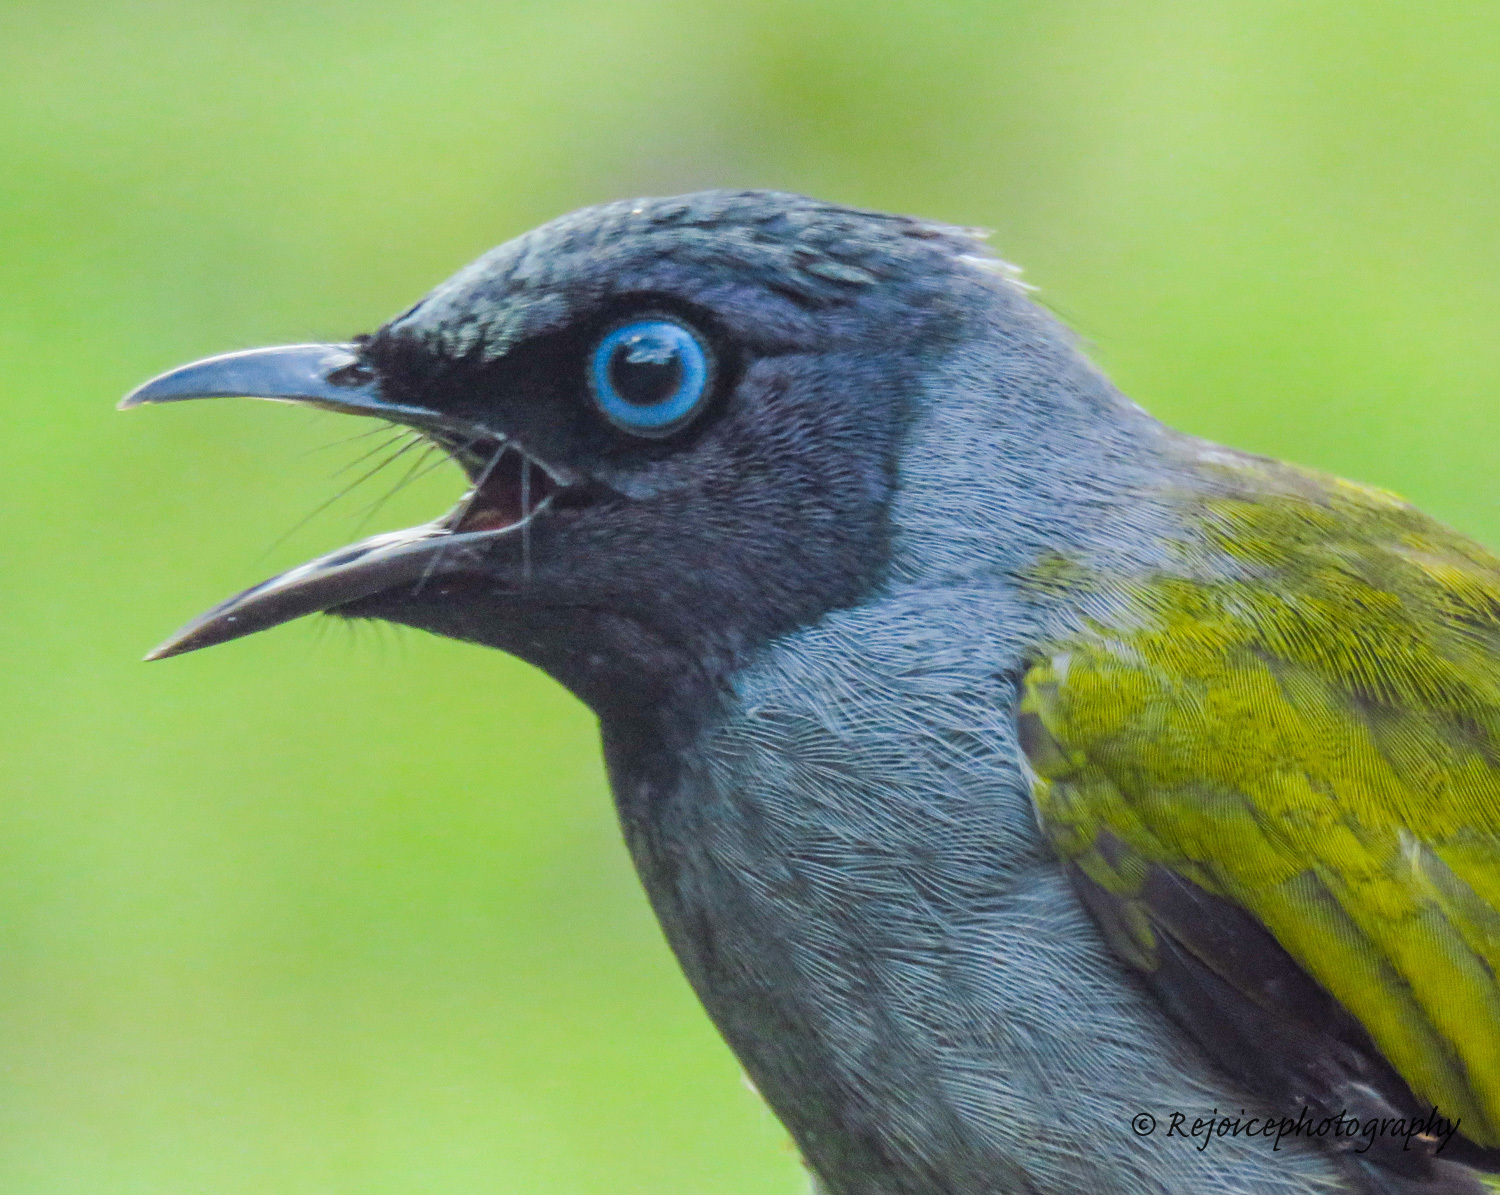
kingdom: Animalia
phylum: Chordata
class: Aves
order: Passeriformes
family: Pycnonotidae
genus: Microtarsus
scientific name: Microtarsus
